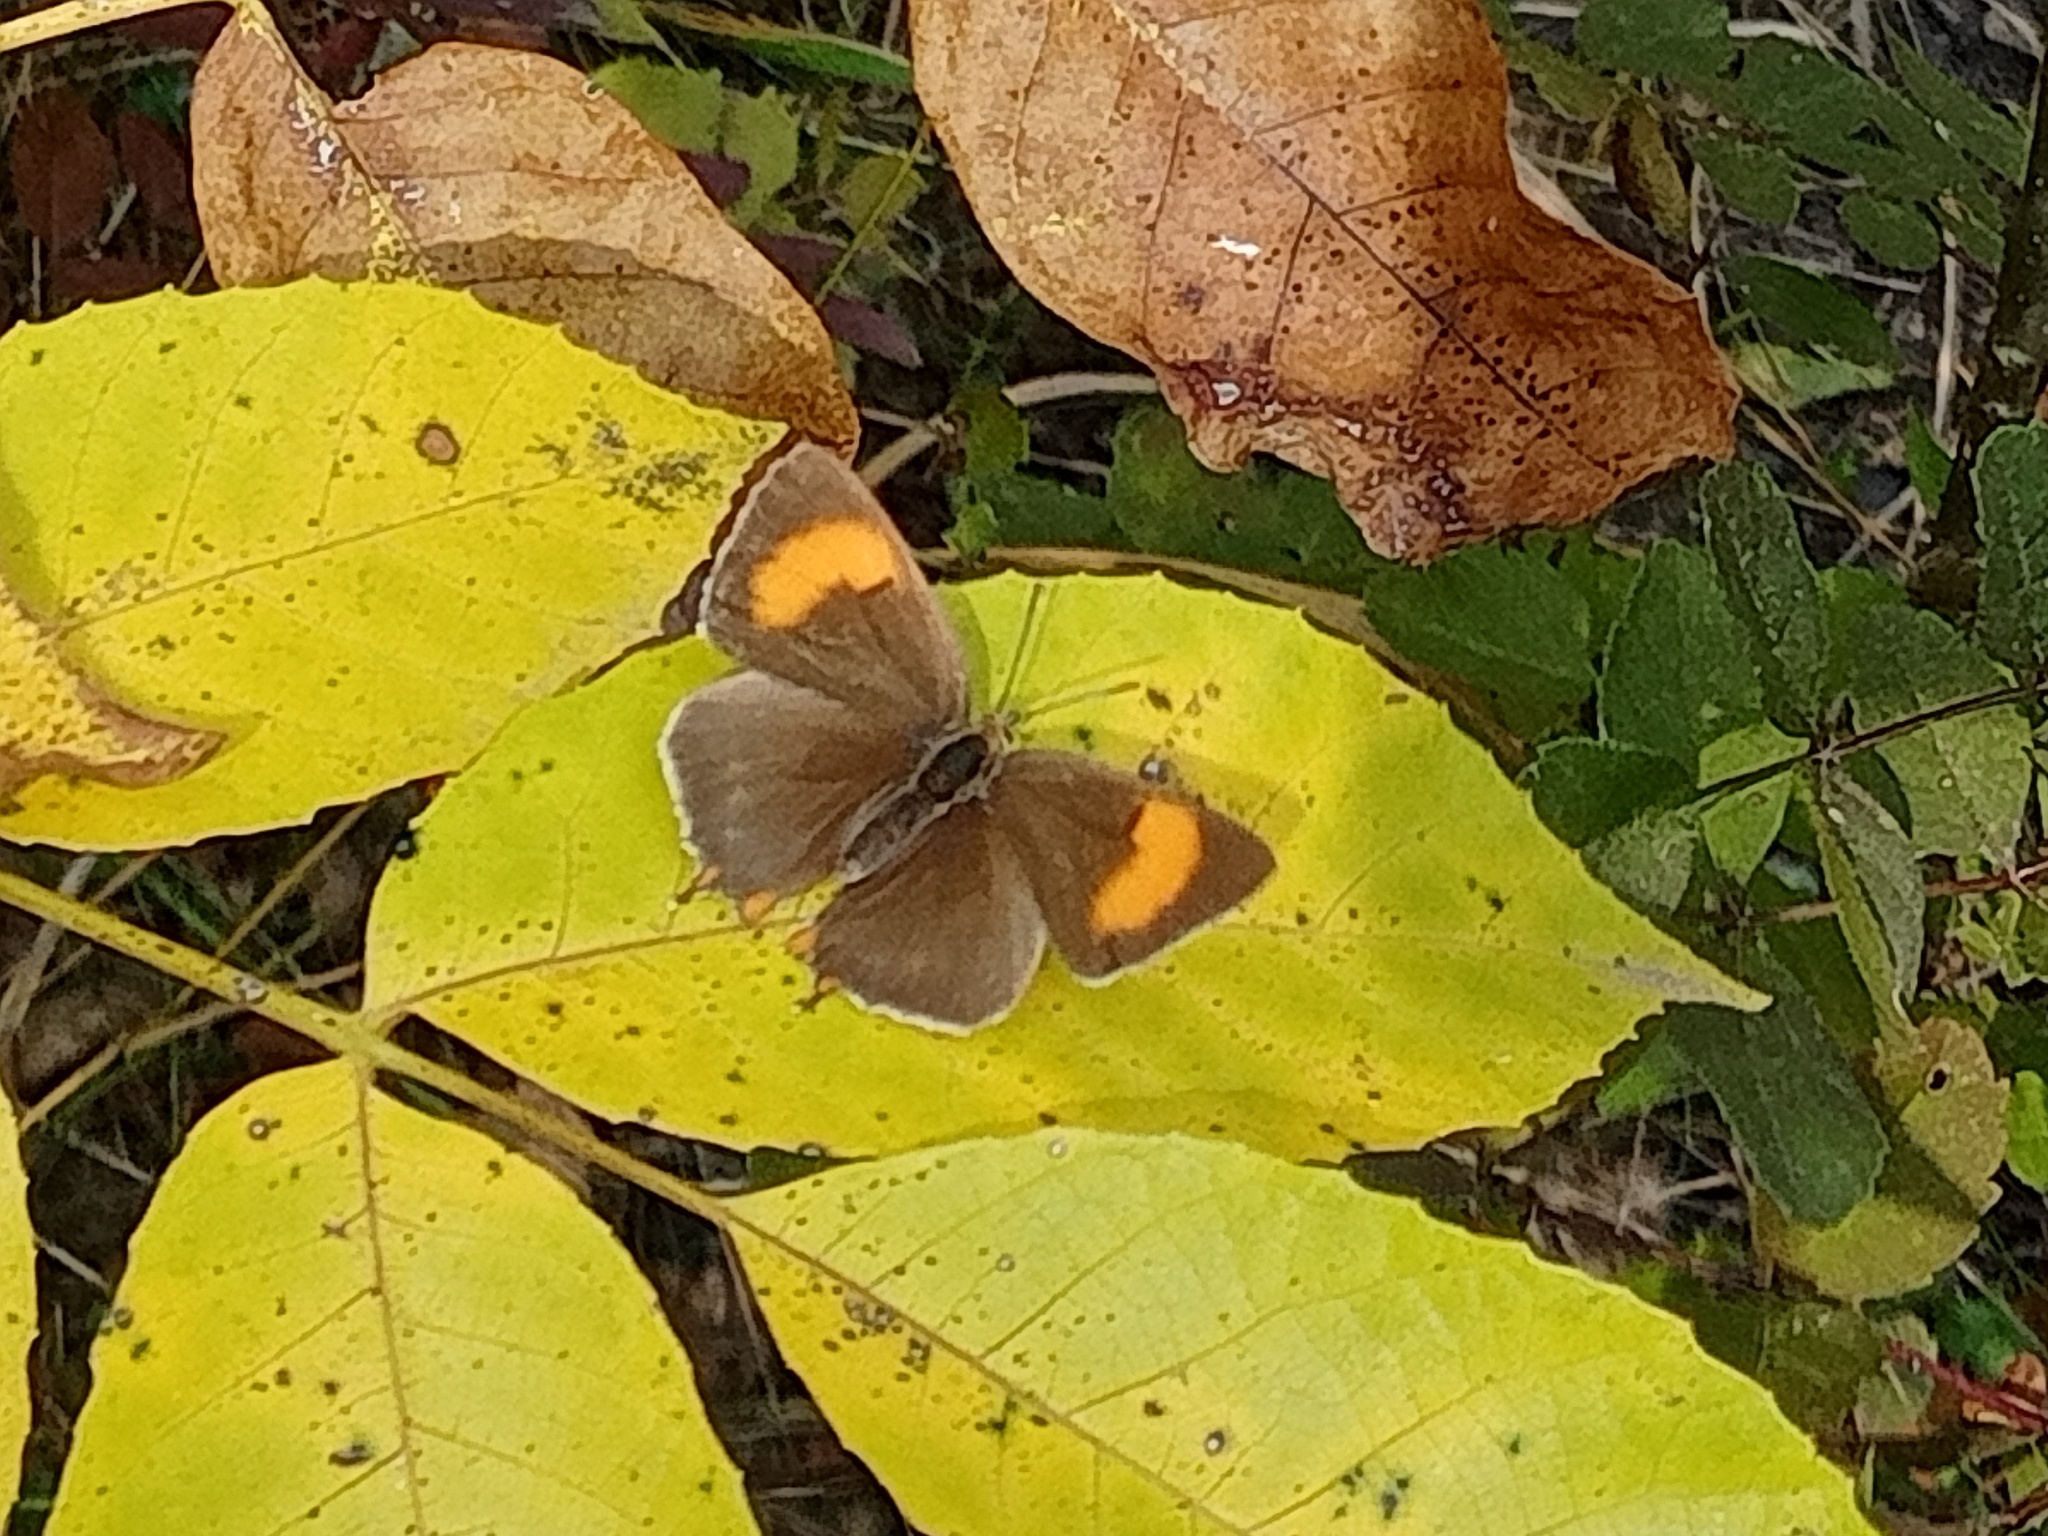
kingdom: Animalia
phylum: Arthropoda
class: Insecta
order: Lepidoptera
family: Lycaenidae
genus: Thecla
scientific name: Thecla betulae
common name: Brown hairstreak
